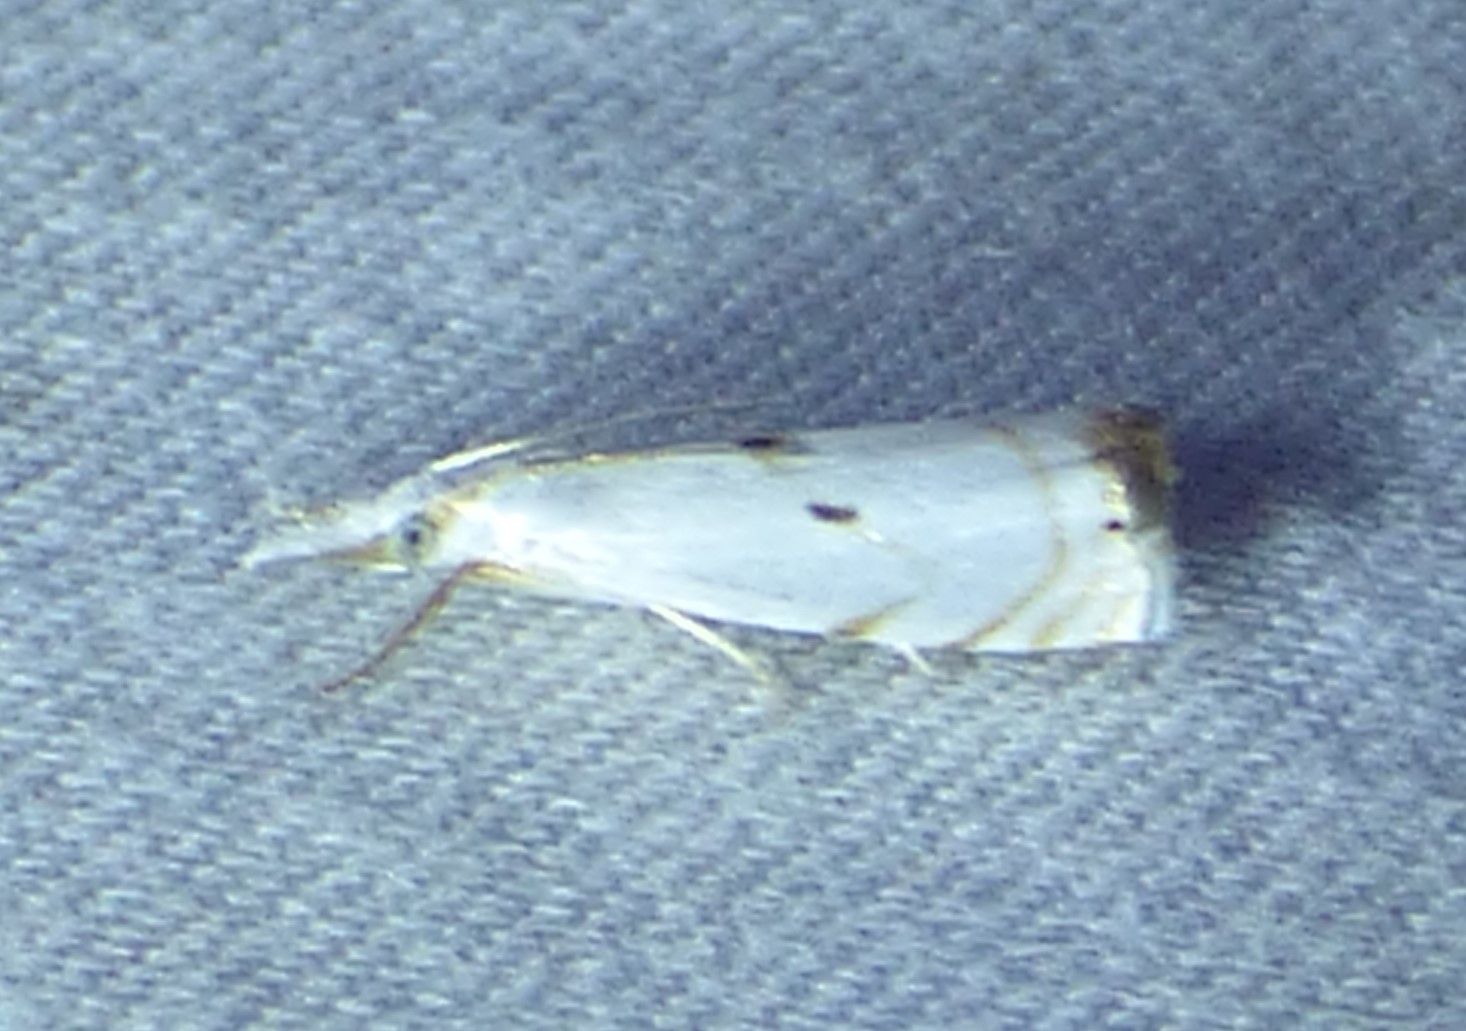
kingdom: Animalia
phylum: Arthropoda
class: Insecta
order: Lepidoptera
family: Crambidae
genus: Microcrambus
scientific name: Microcrambus biguttellus
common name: Gold-stripe grass-veneer moth
